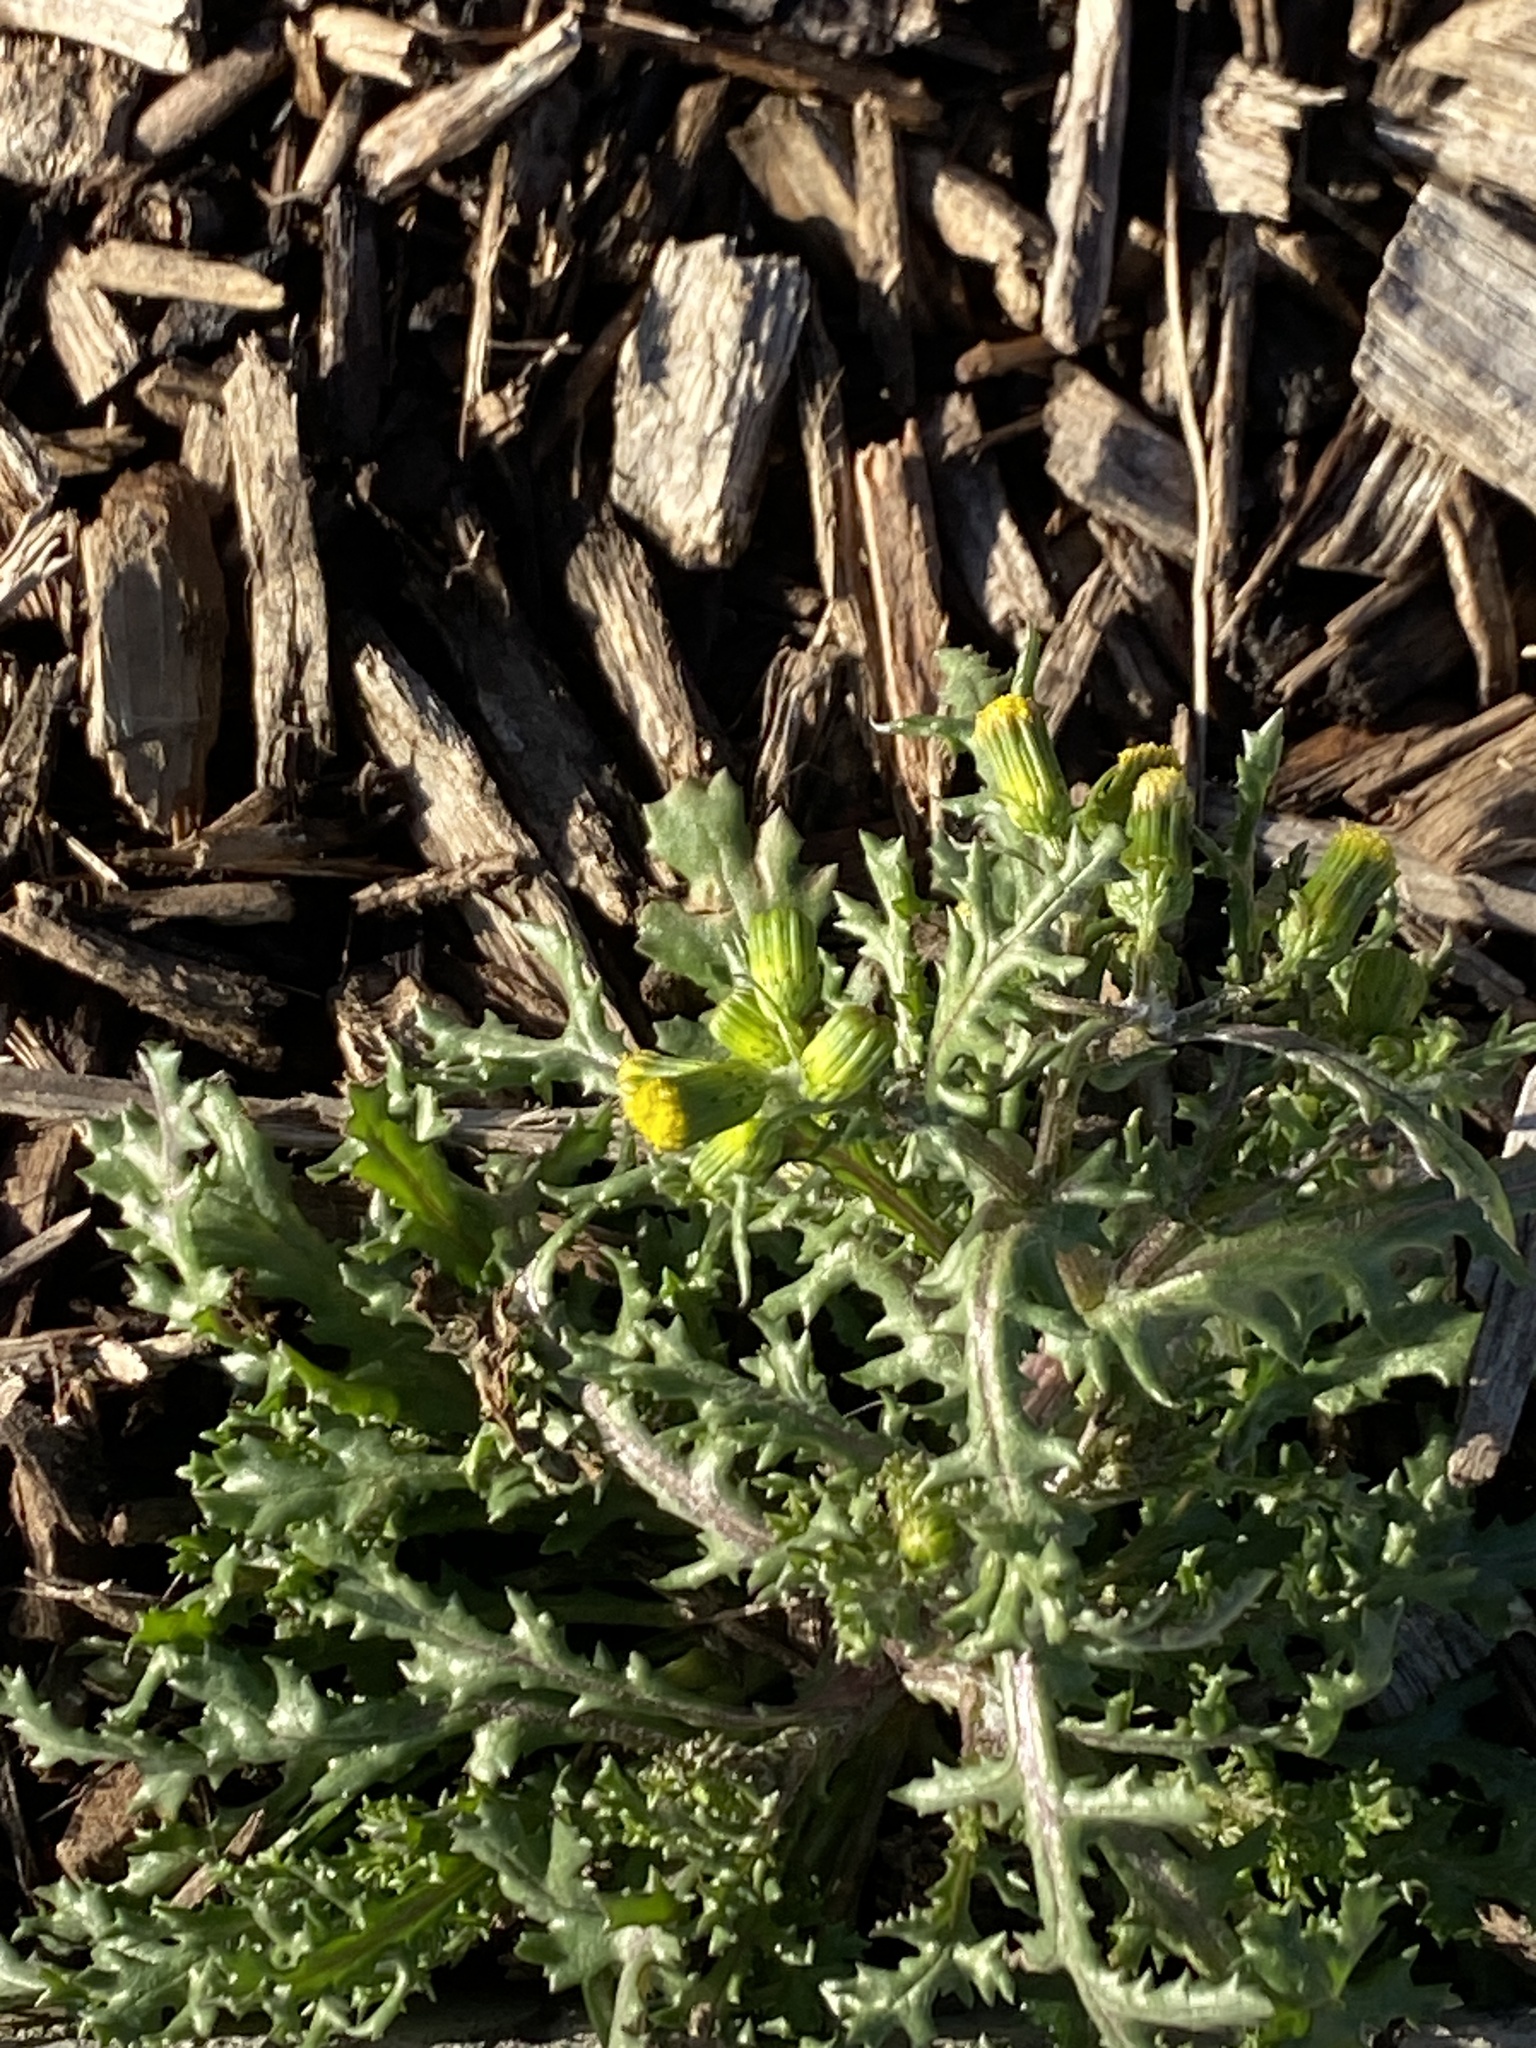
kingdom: Plantae
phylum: Tracheophyta
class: Magnoliopsida
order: Asterales
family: Asteraceae
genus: Senecio
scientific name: Senecio vulgaris
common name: Old-man-in-the-spring
